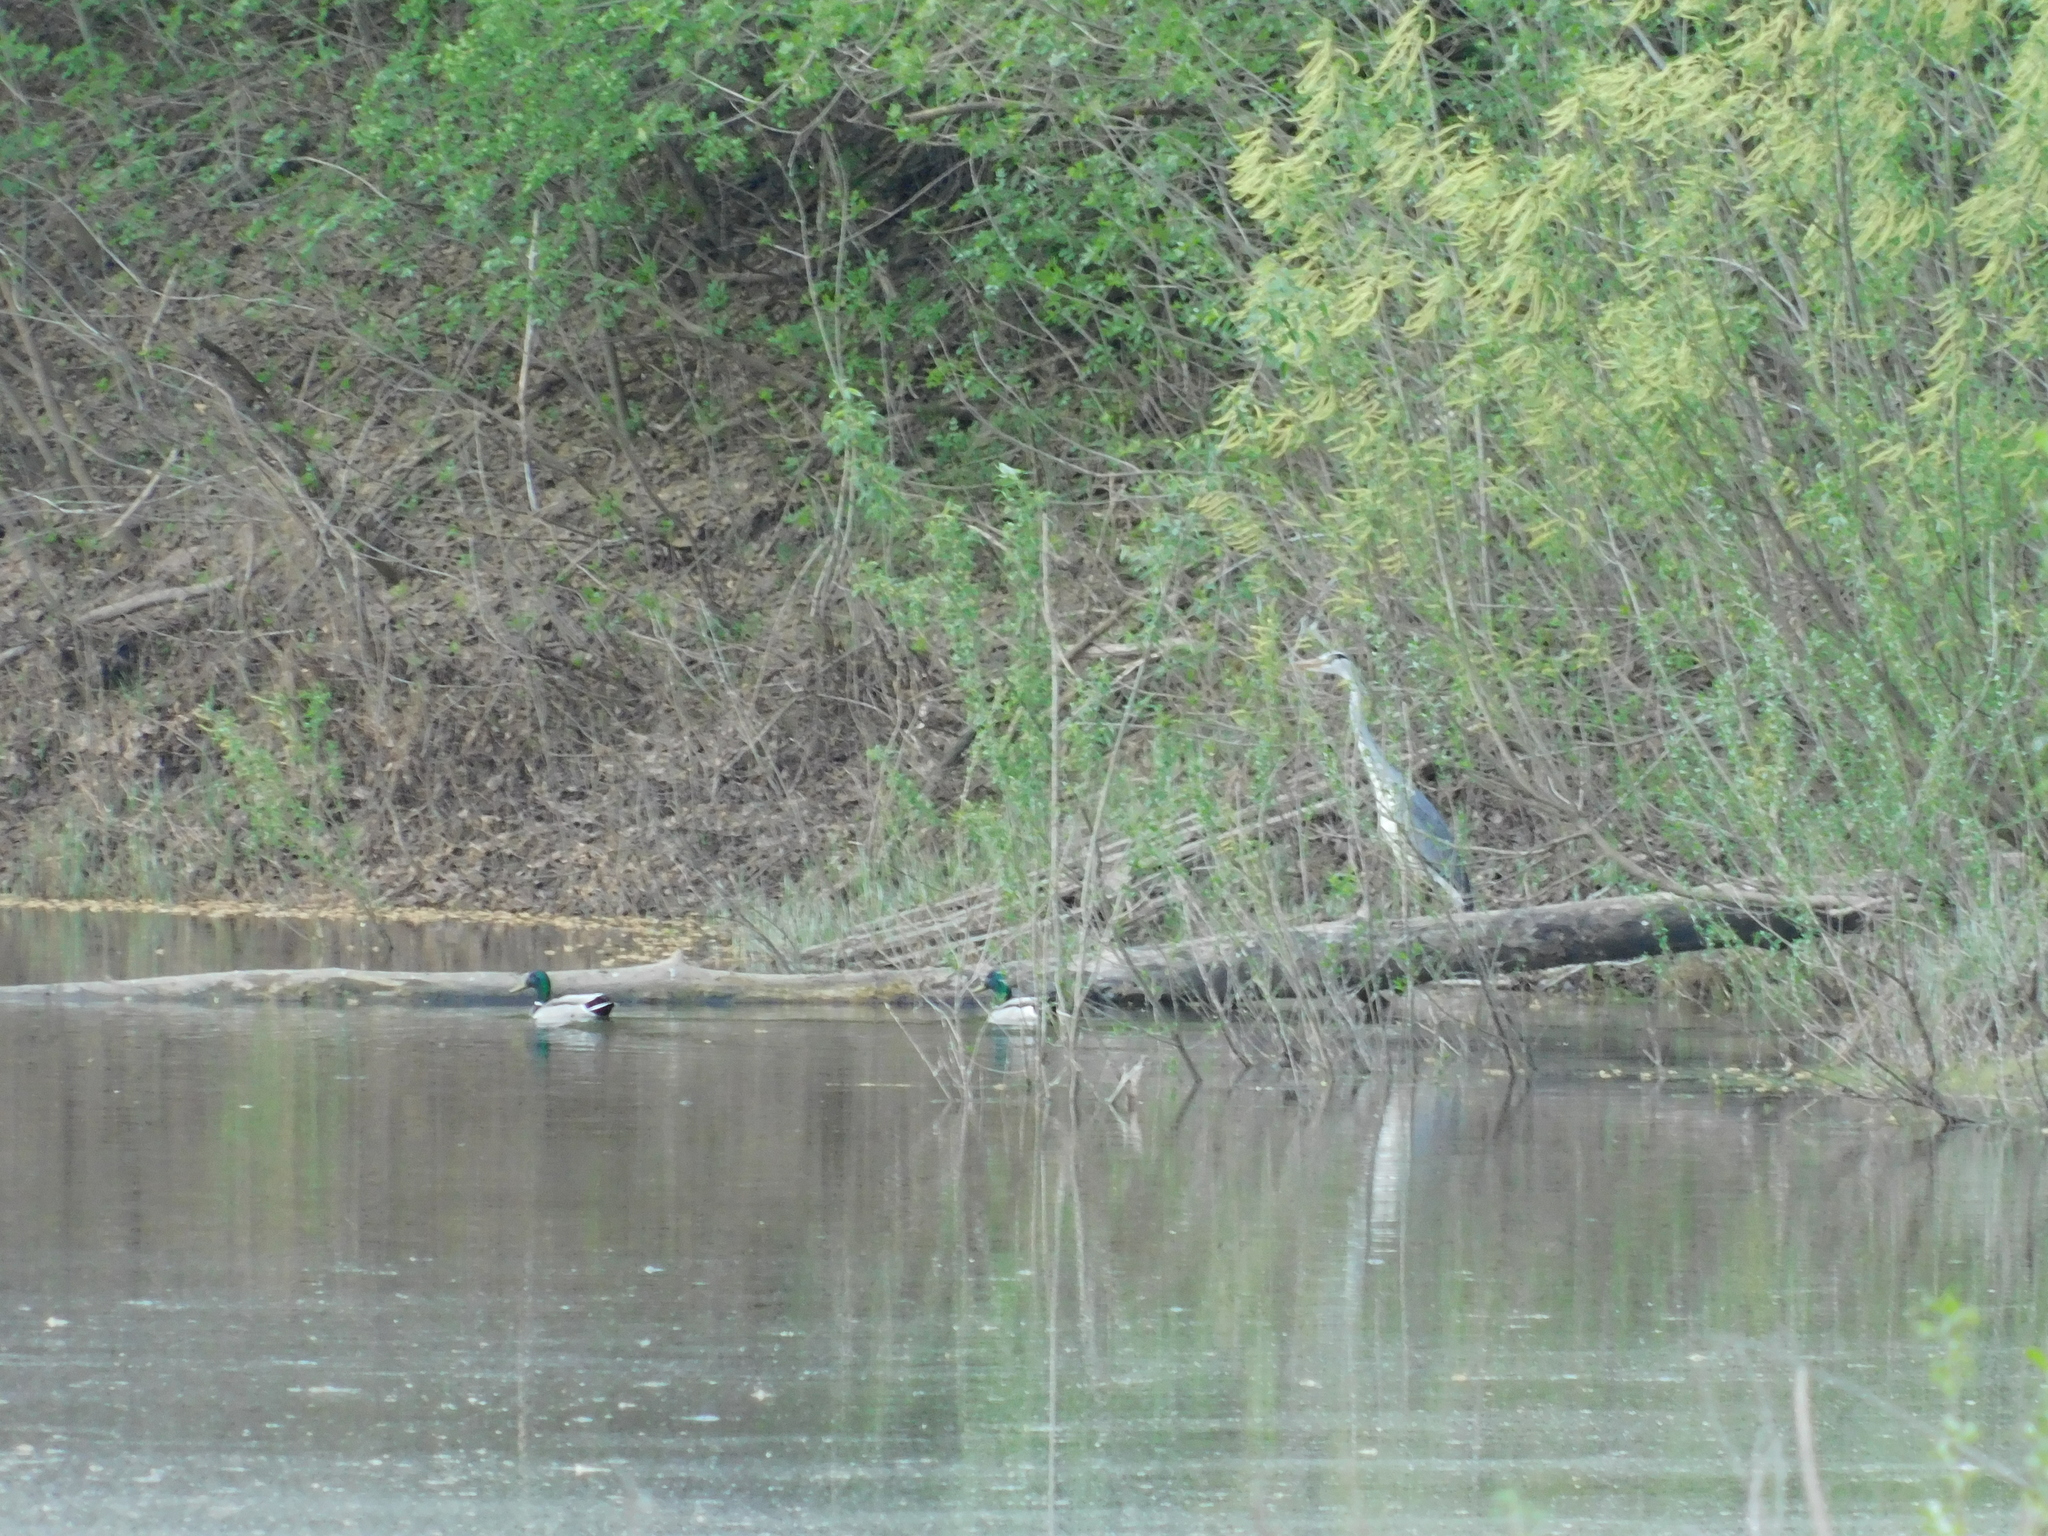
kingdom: Animalia
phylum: Chordata
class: Aves
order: Pelecaniformes
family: Ardeidae
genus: Ardea
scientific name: Ardea cinerea
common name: Grey heron
